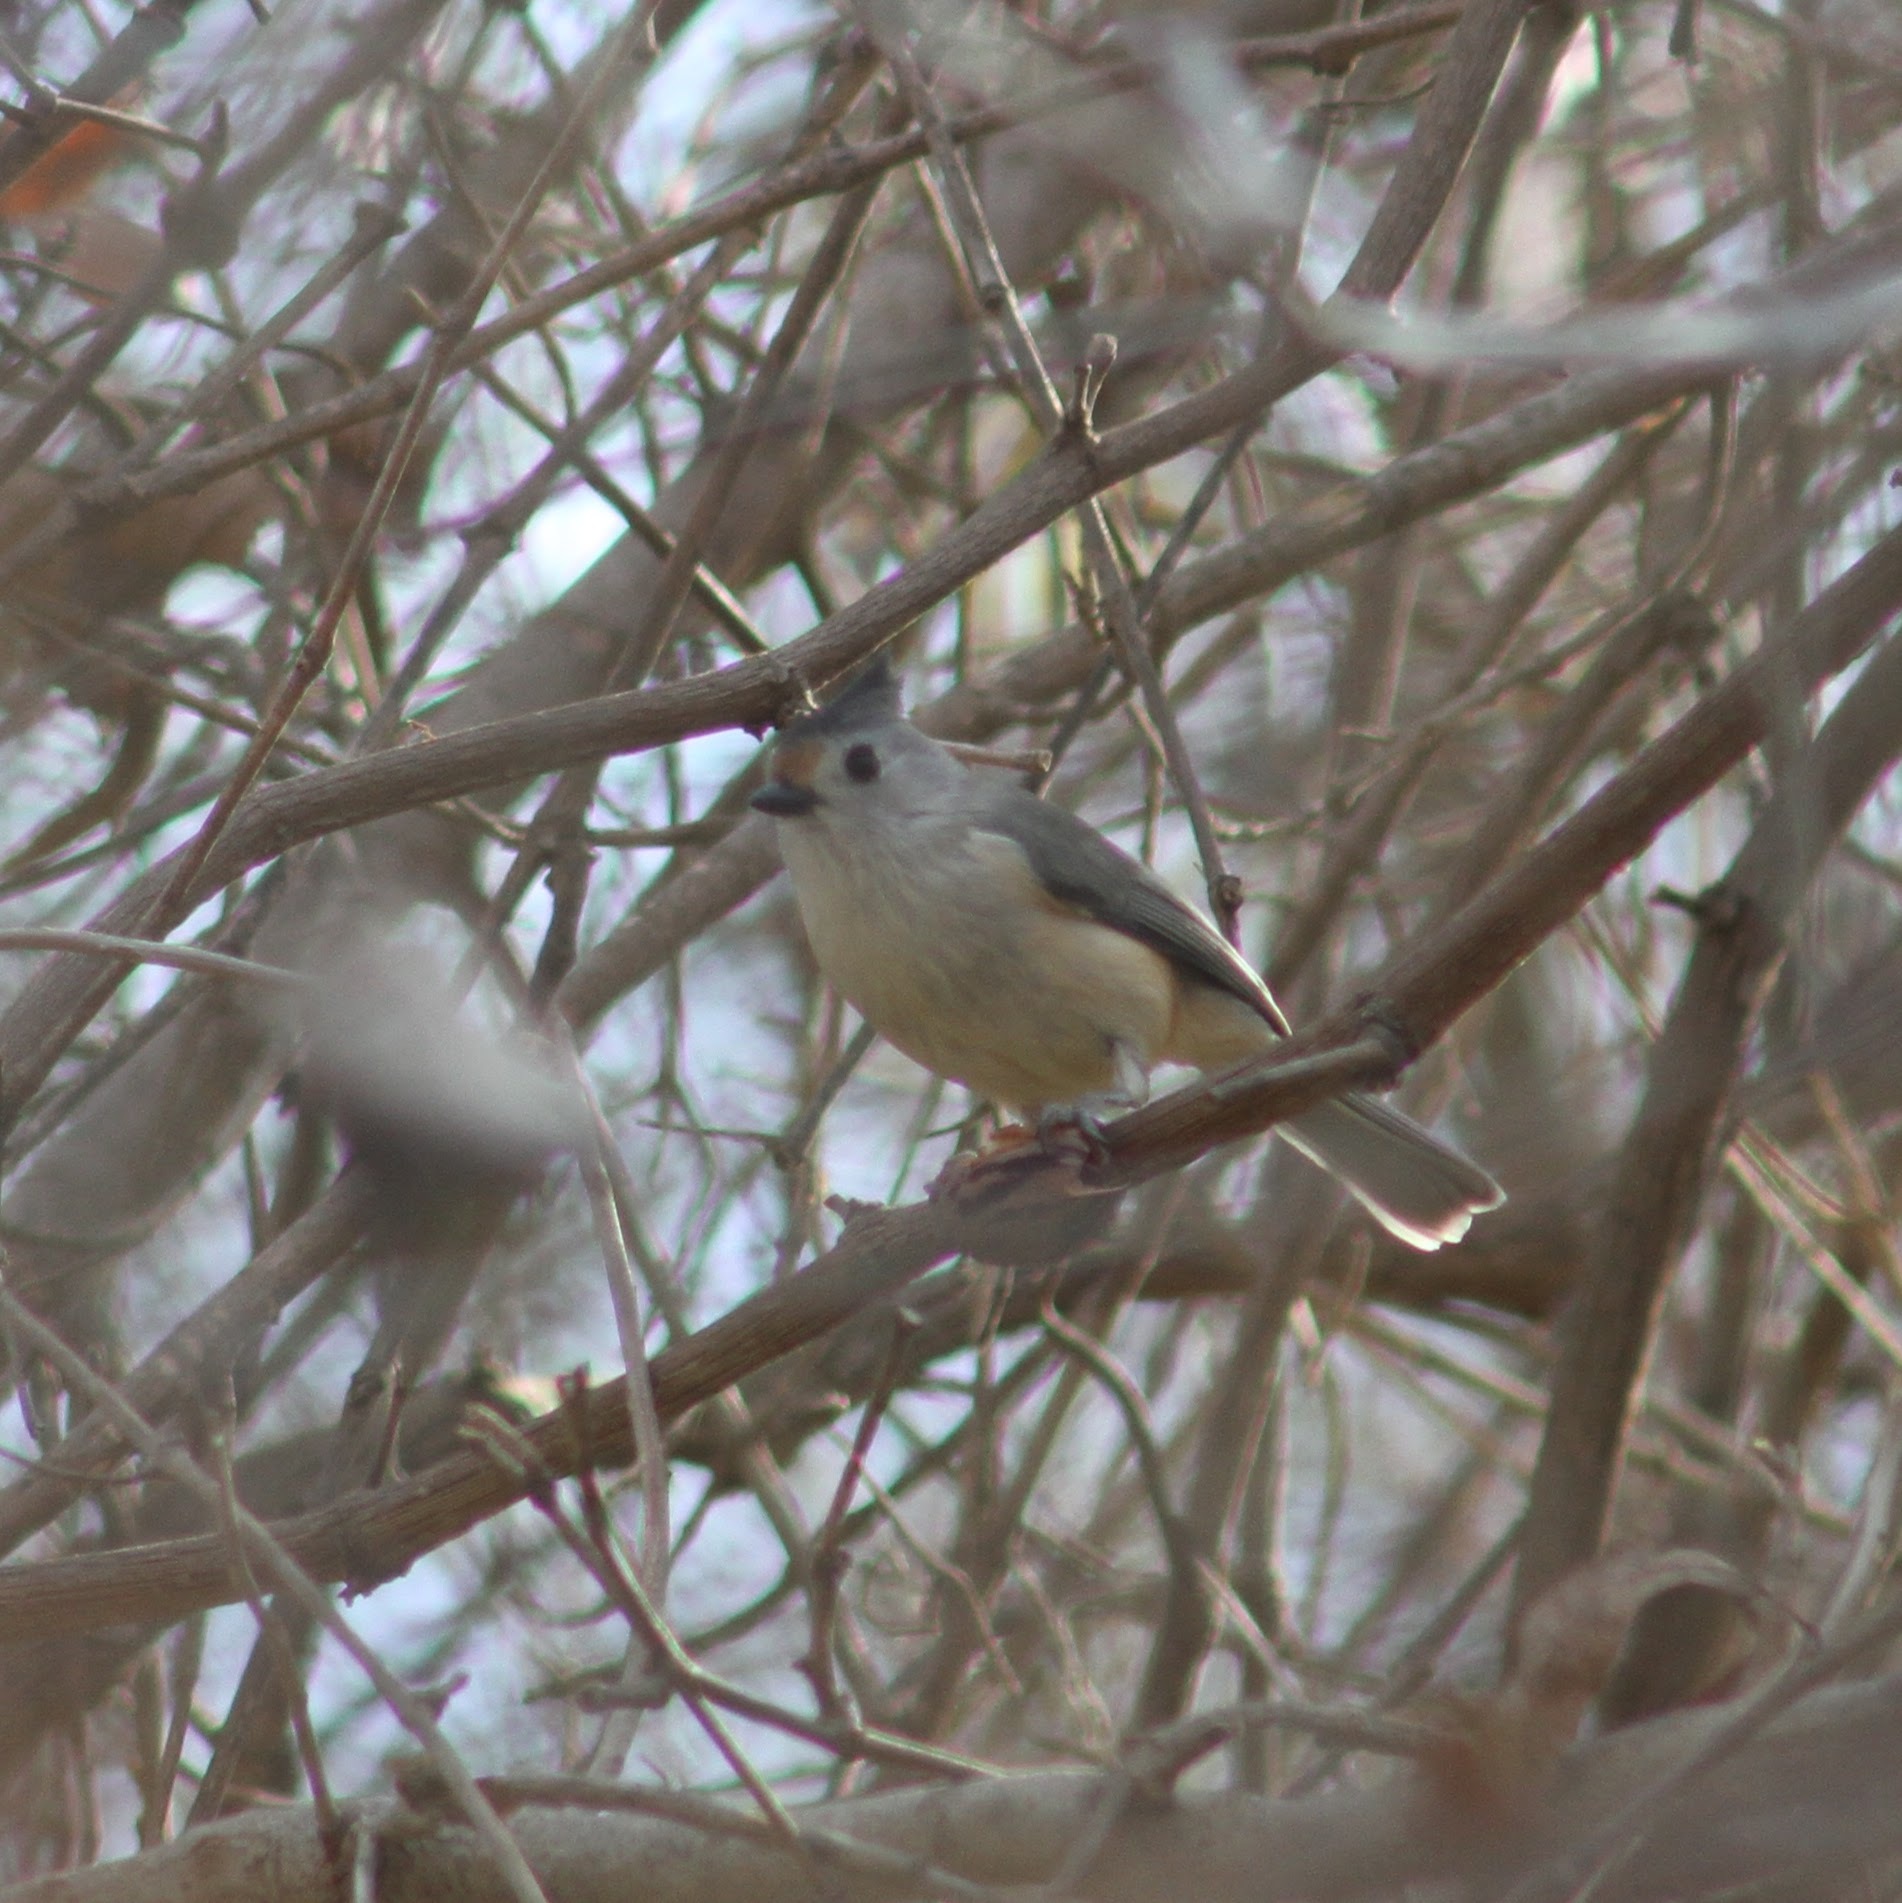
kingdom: Animalia
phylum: Chordata
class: Aves
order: Passeriformes
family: Paridae
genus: Baeolophus
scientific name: Baeolophus
